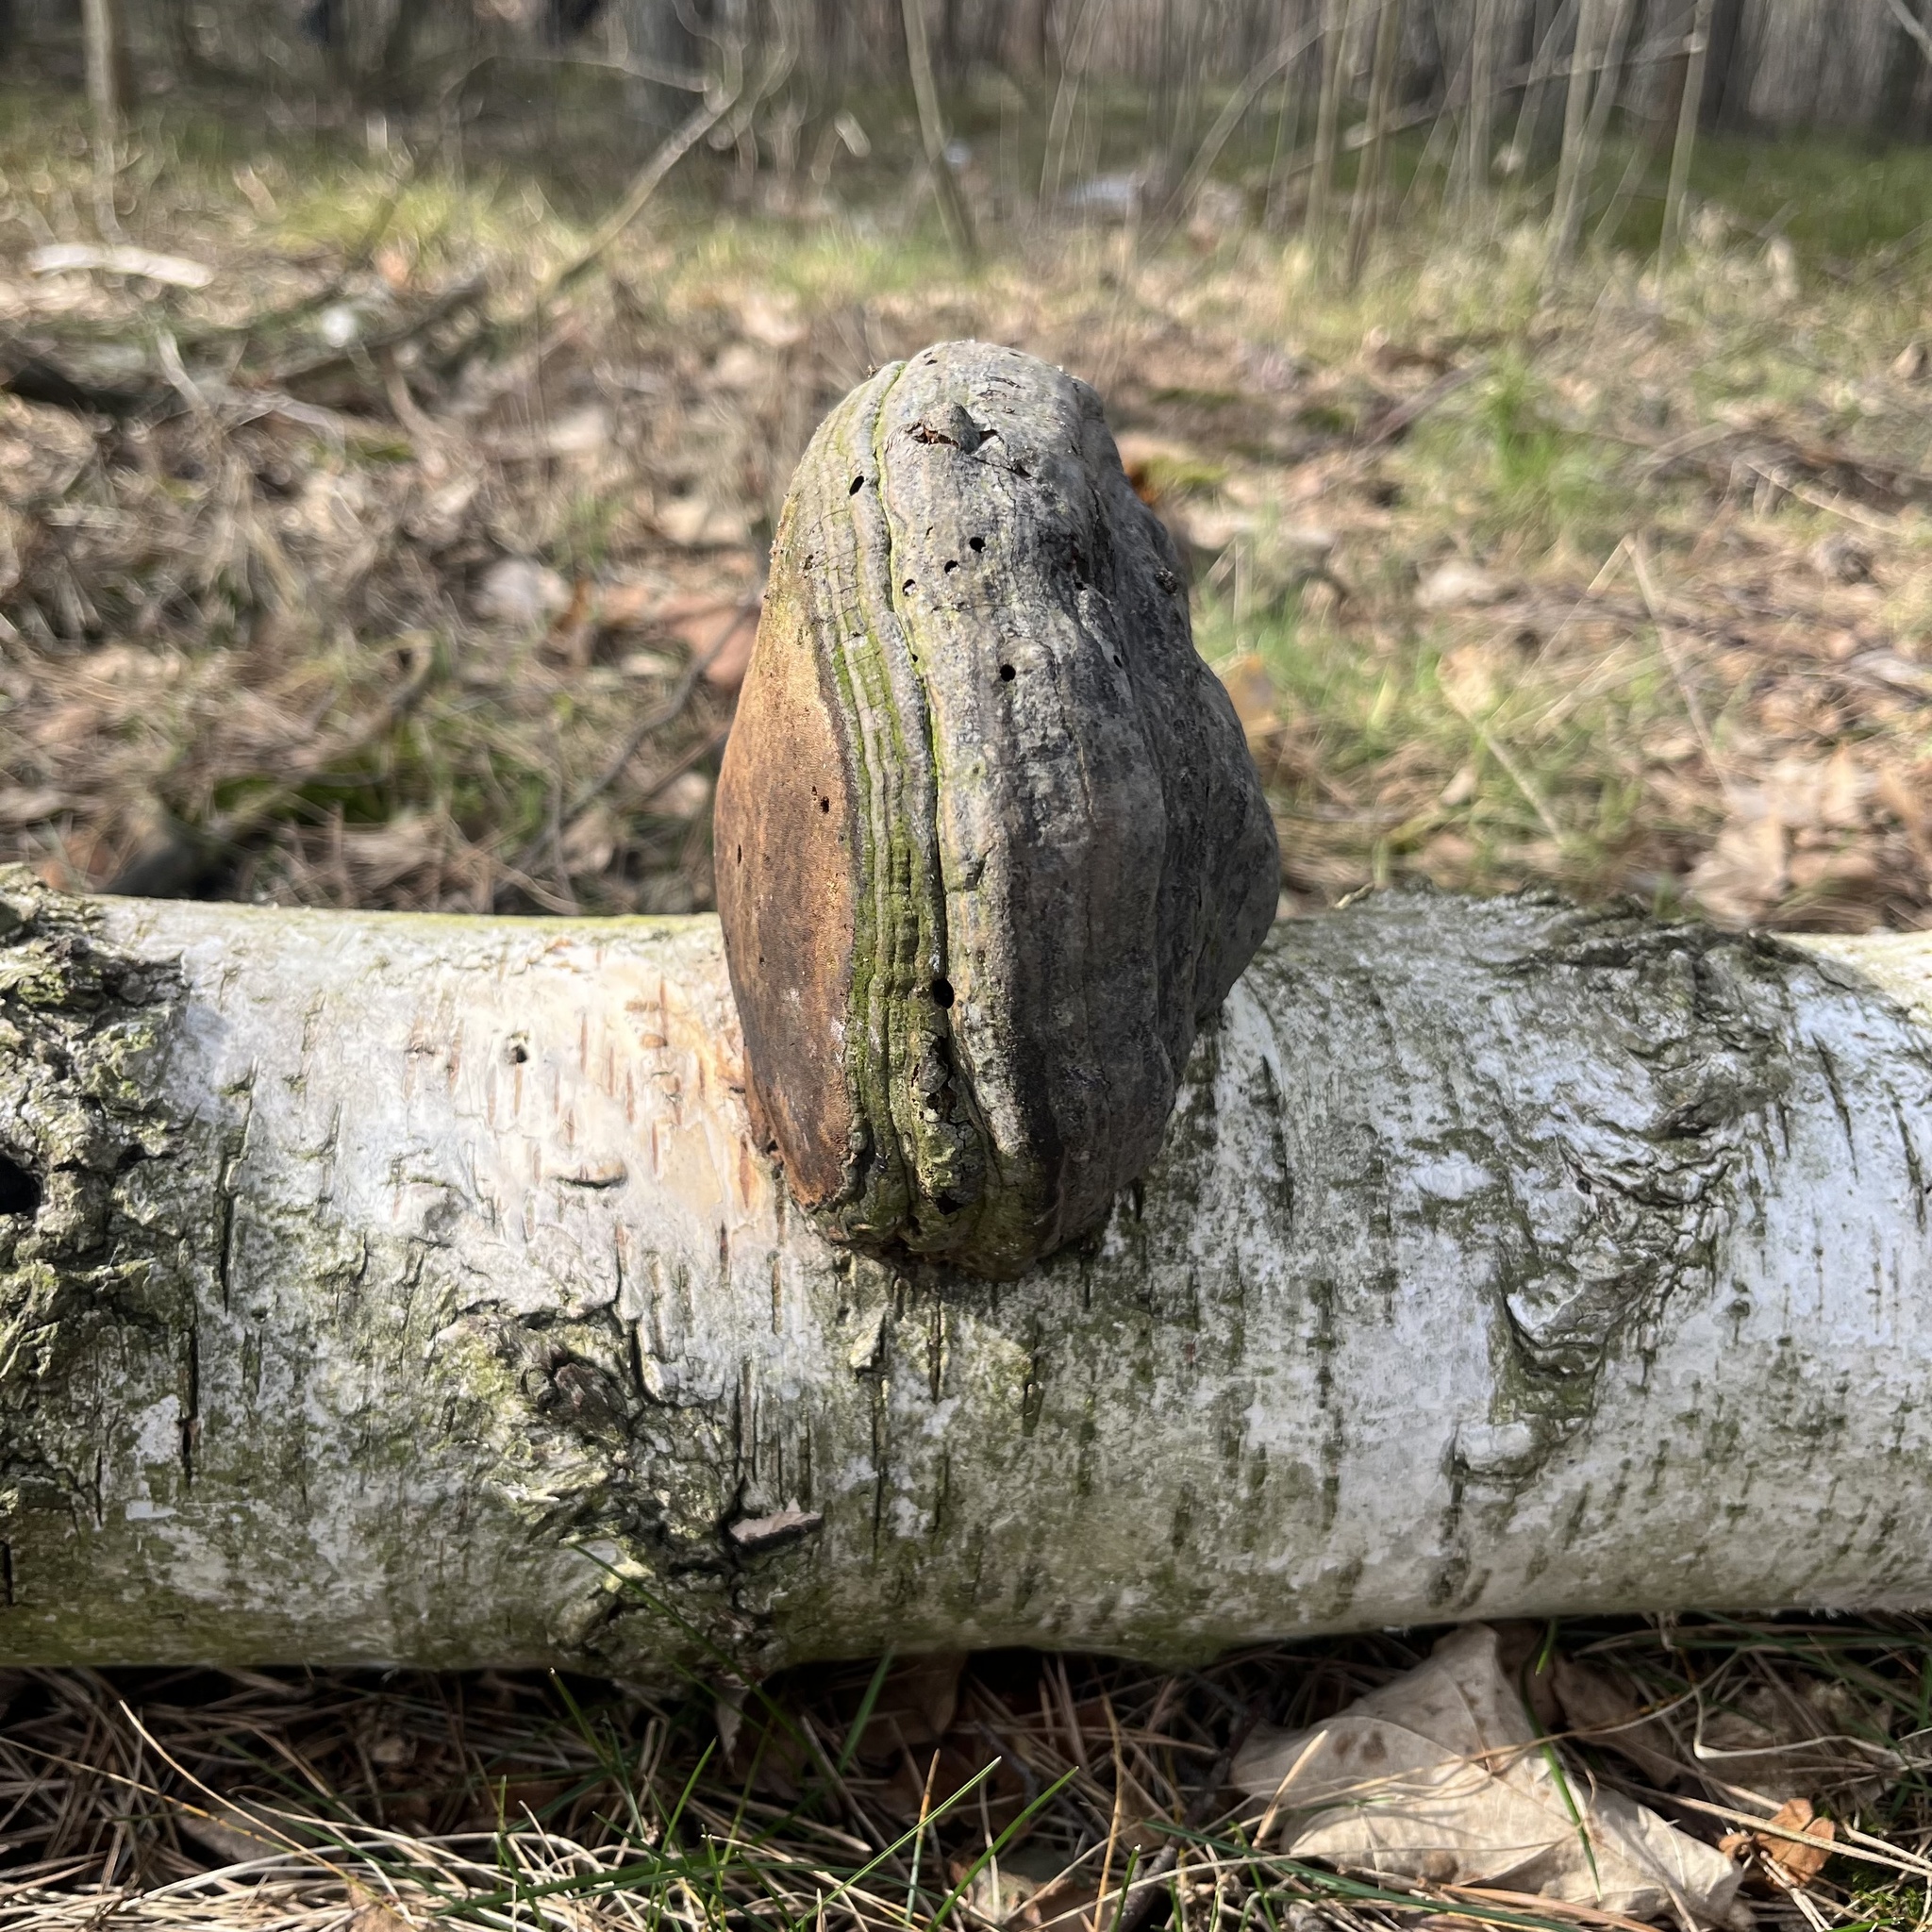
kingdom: Fungi
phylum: Basidiomycota
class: Agaricomycetes
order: Polyporales
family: Polyporaceae
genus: Fomes
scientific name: Fomes fomentarius
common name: Hoof fungus
